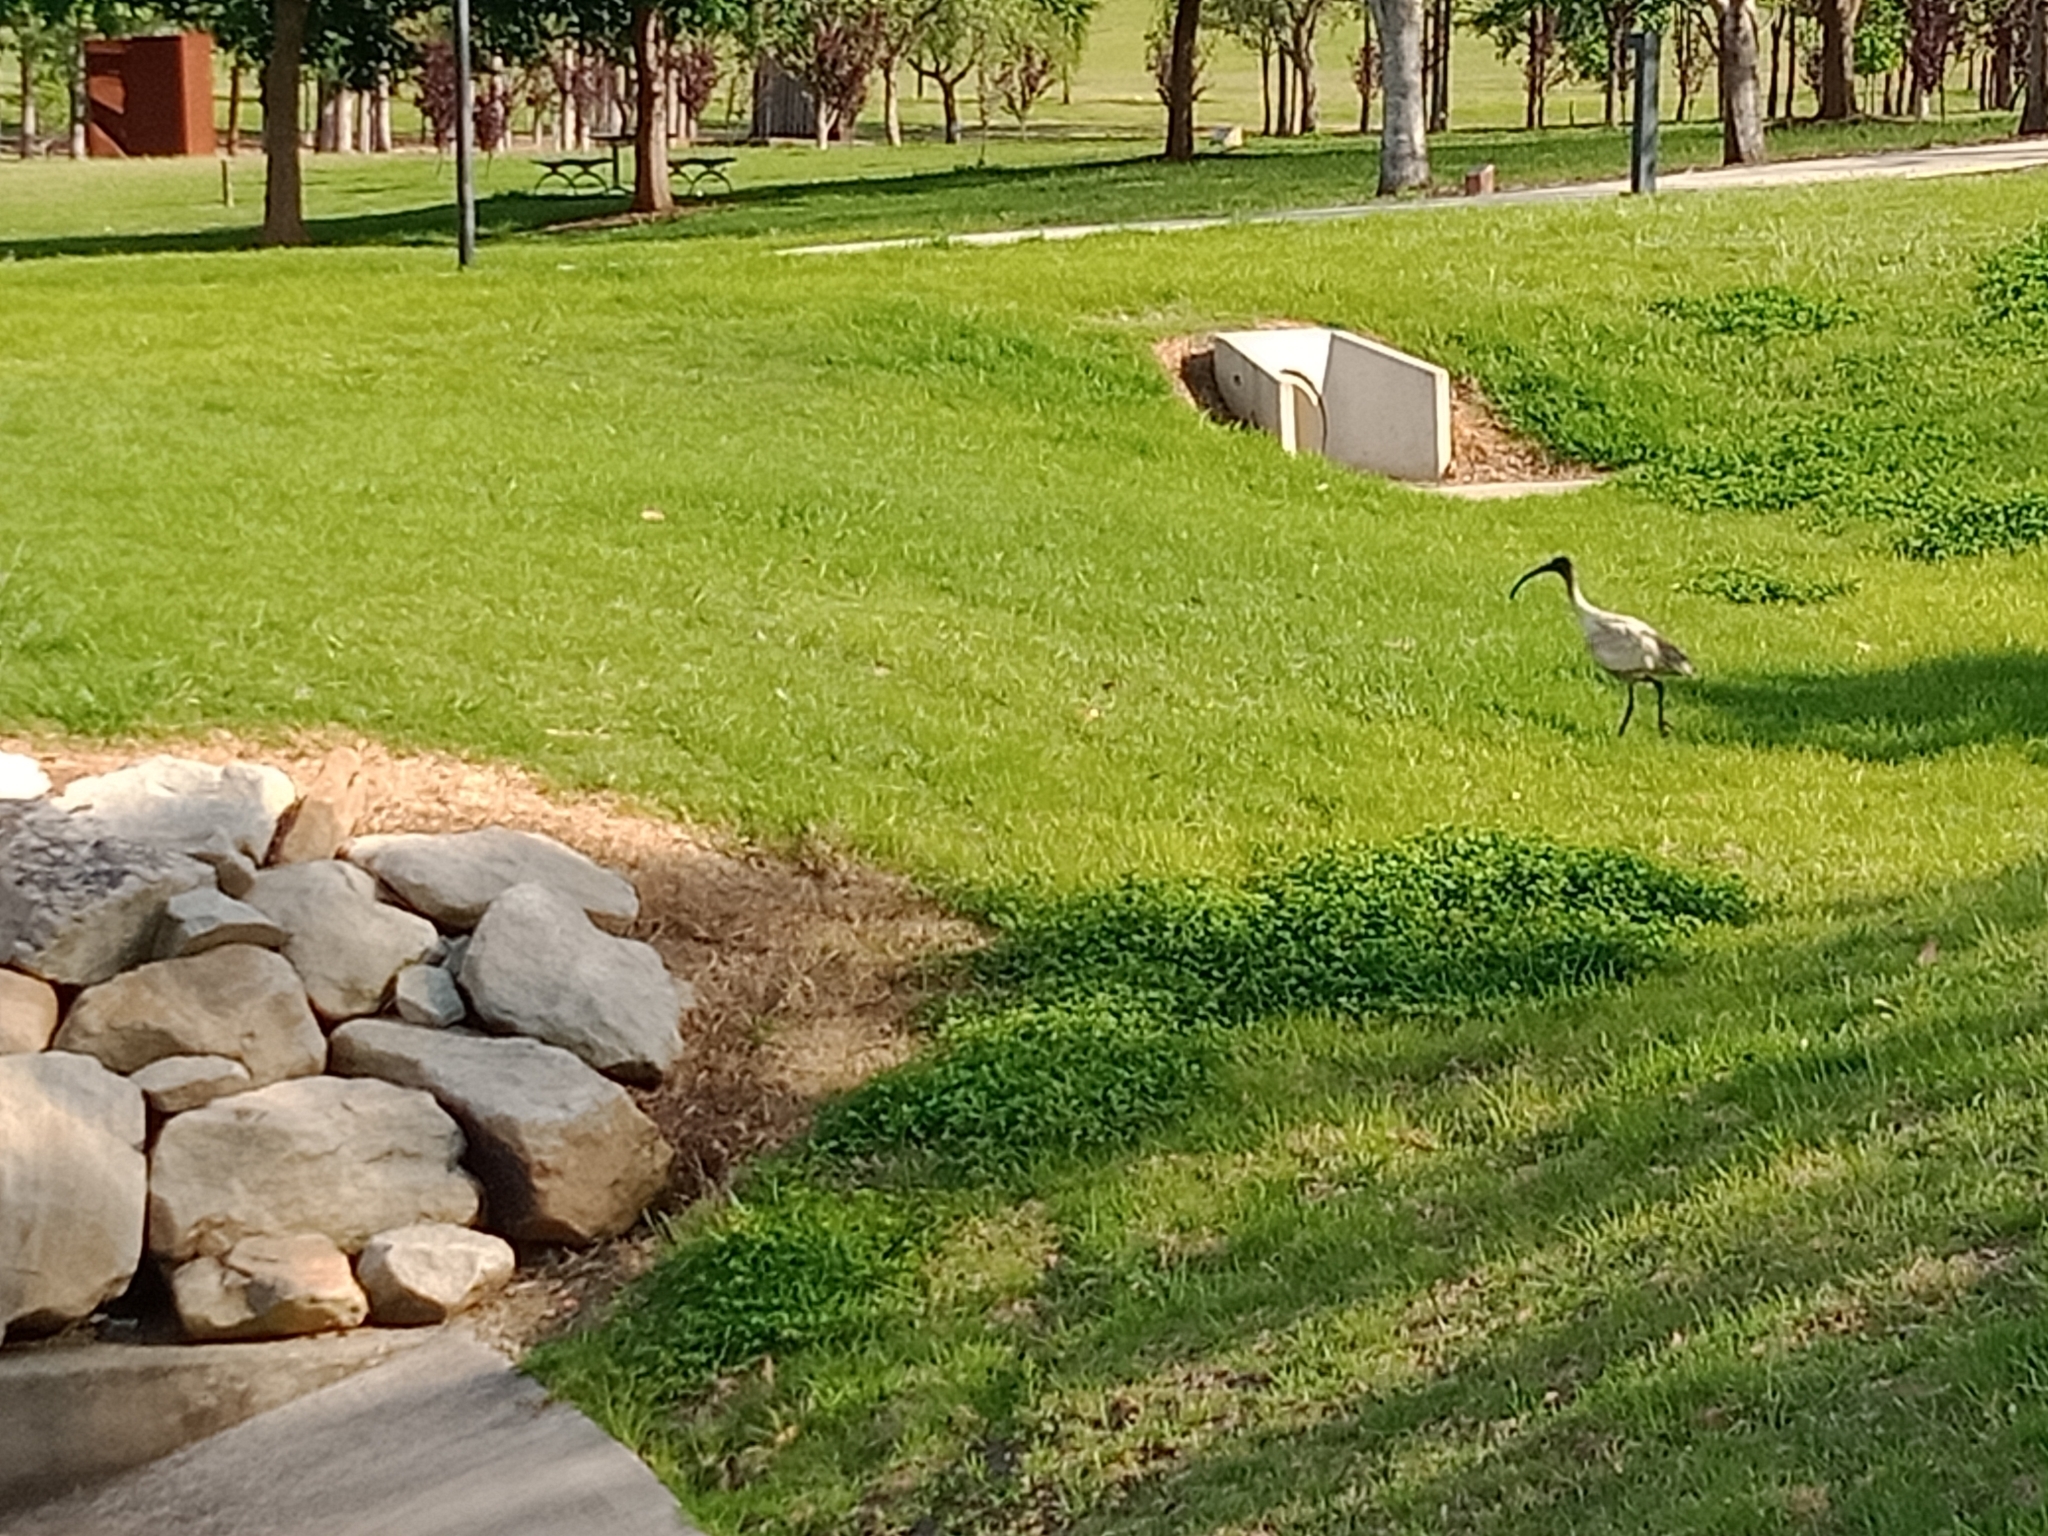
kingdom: Animalia
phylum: Chordata
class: Aves
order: Pelecaniformes
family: Threskiornithidae
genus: Threskiornis
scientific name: Threskiornis molucca
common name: Australian white ibis
